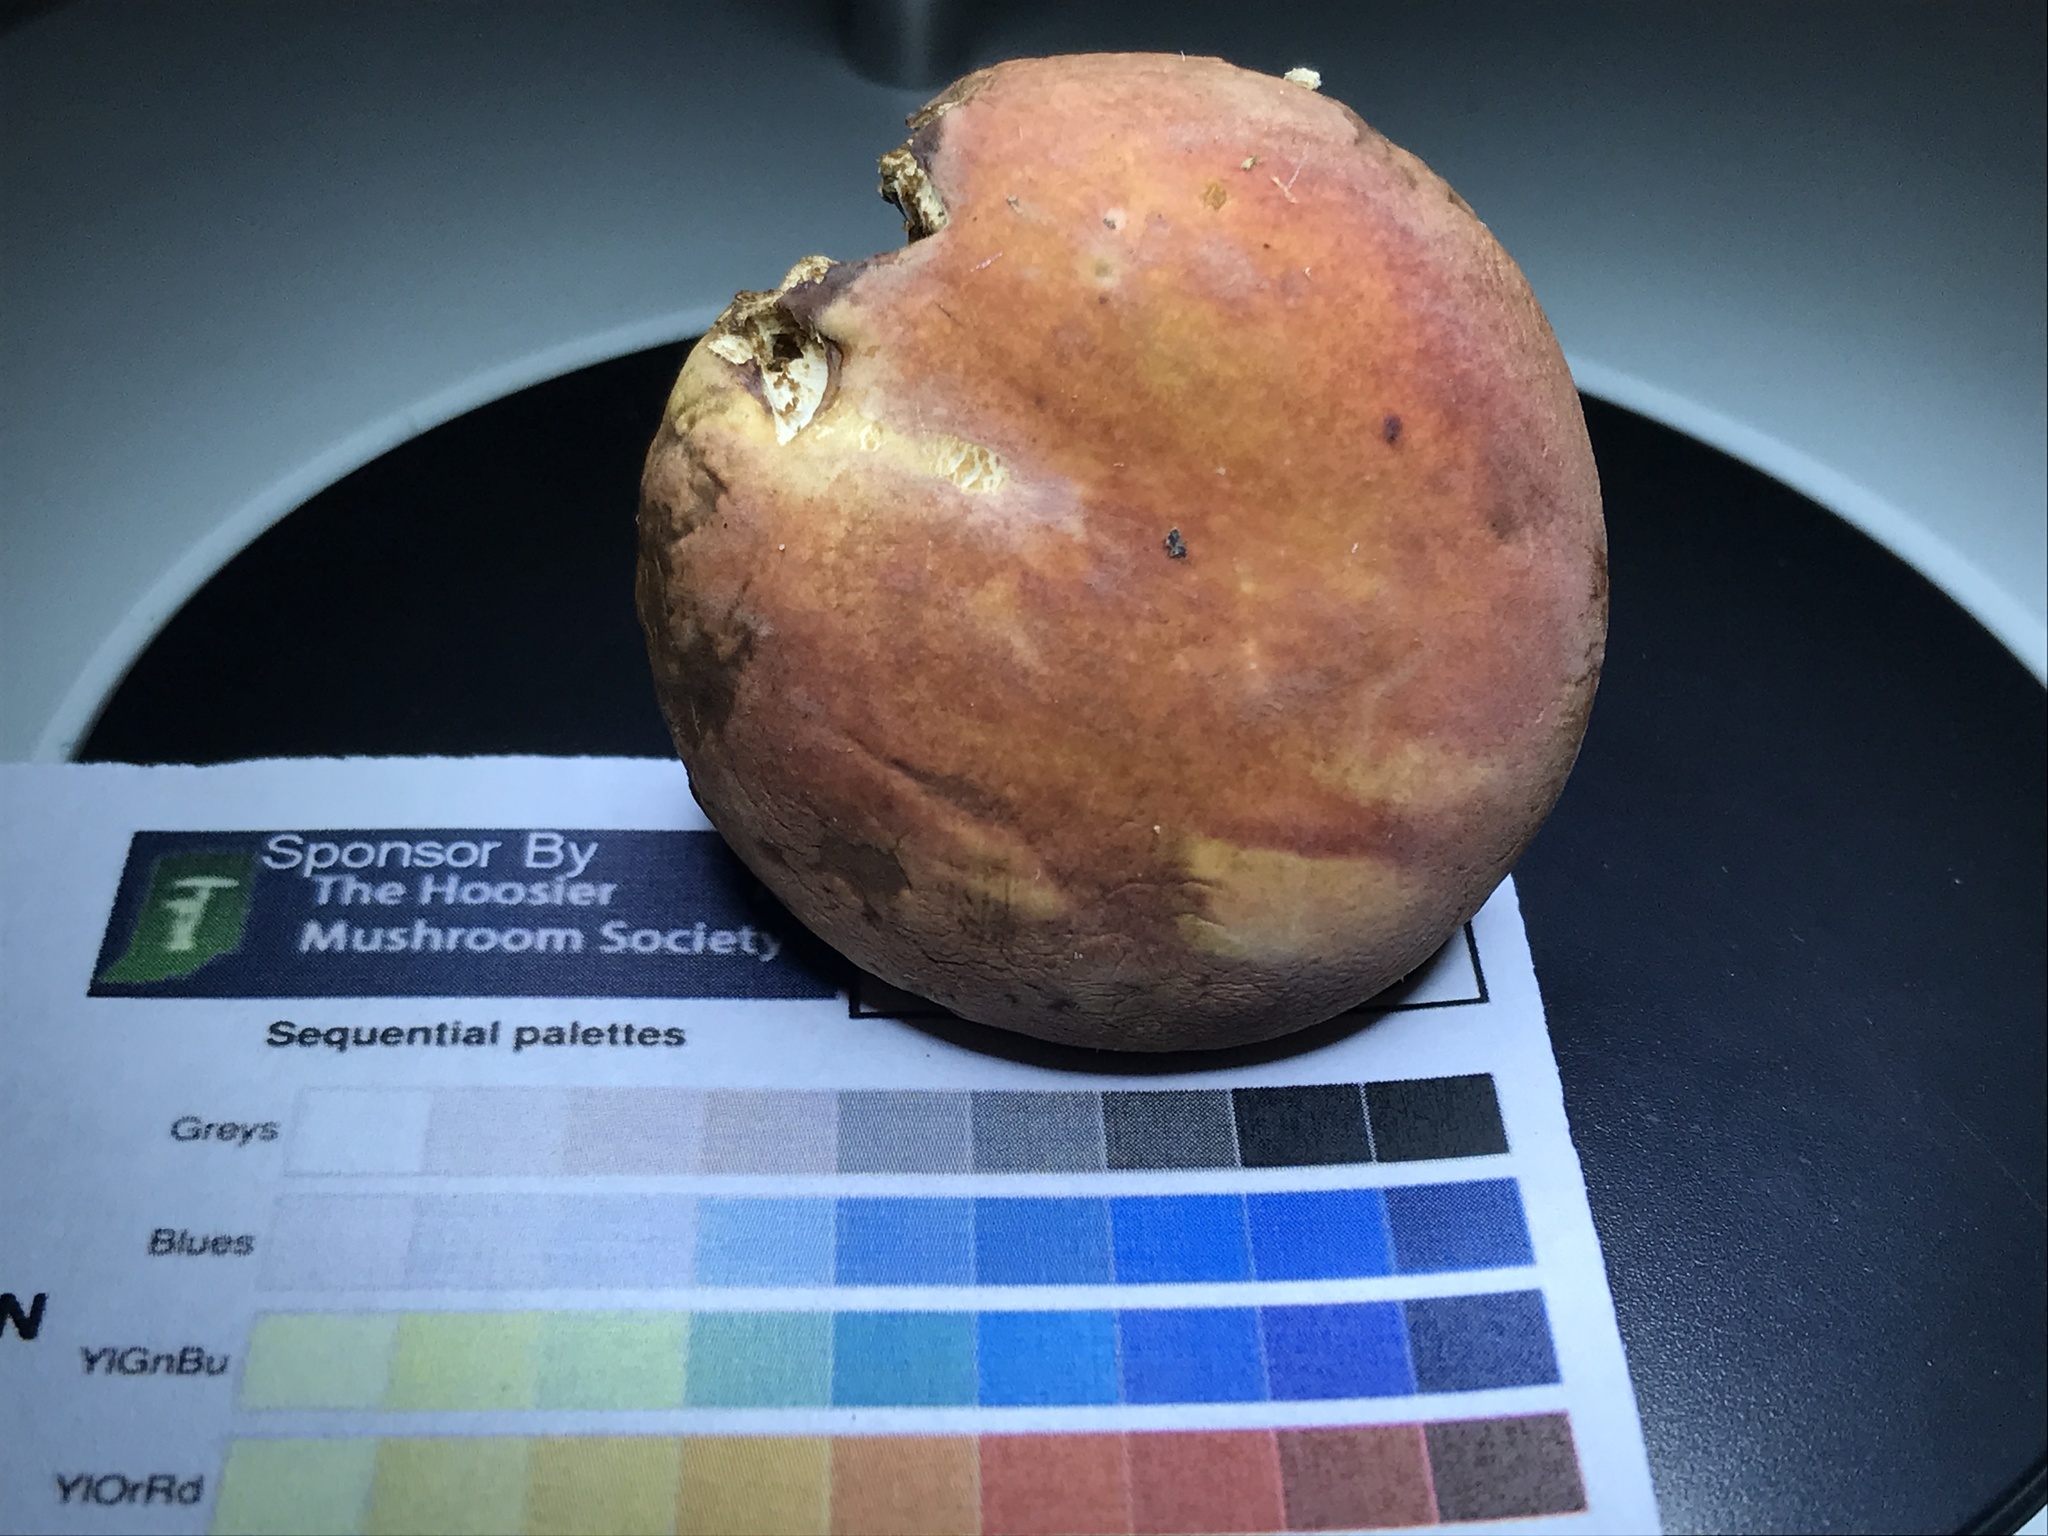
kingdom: Fungi
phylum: Basidiomycota
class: Agaricomycetes
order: Russulales
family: Russulaceae
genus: Russula
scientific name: Russula fucosa
